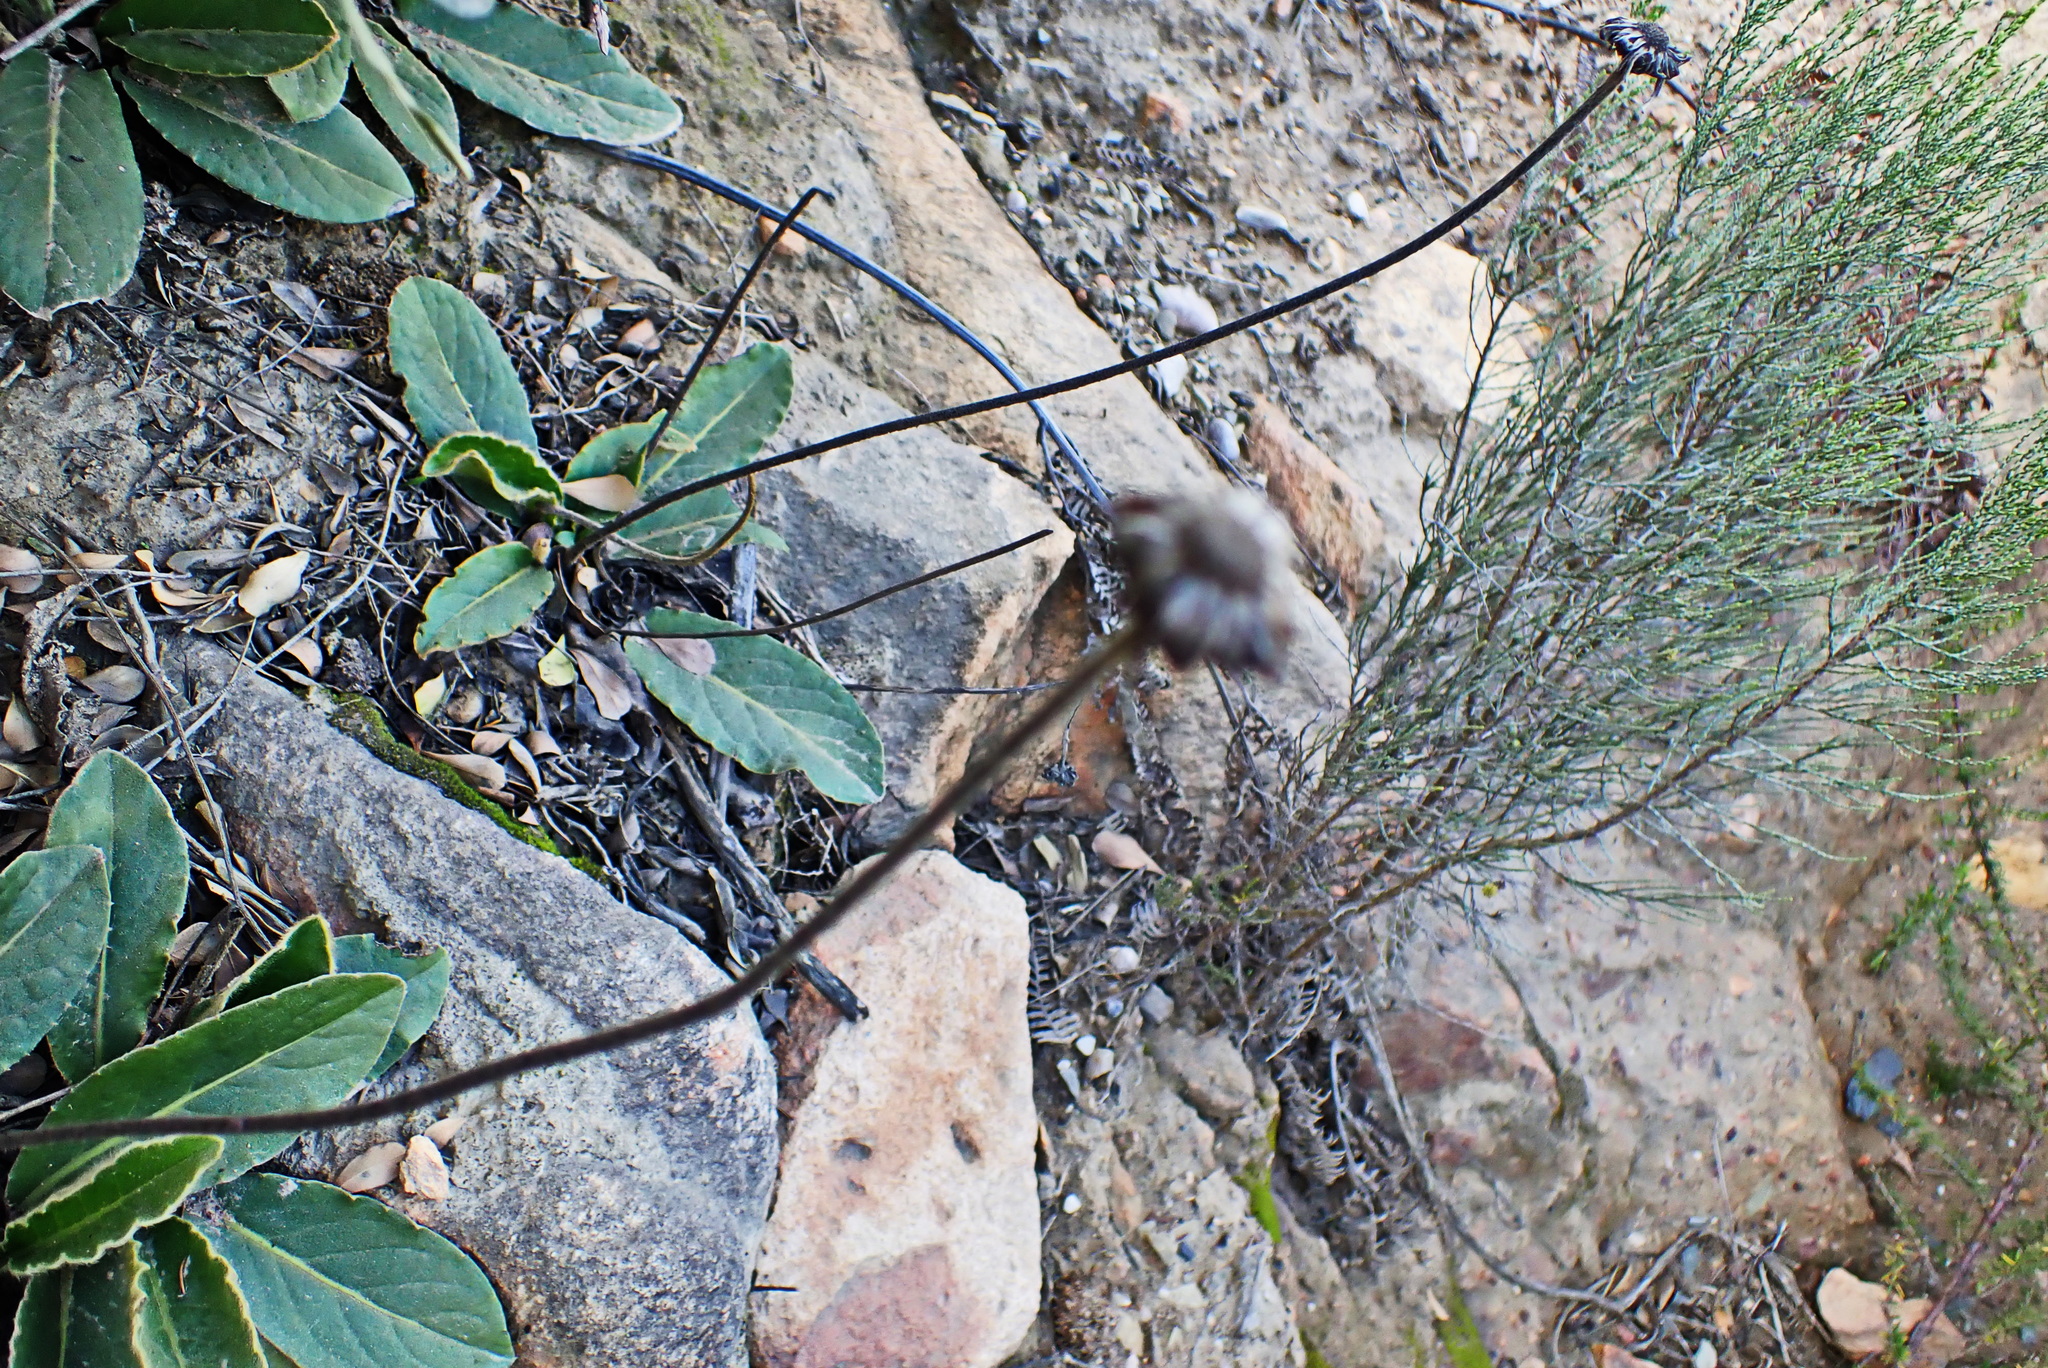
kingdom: Plantae
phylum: Tracheophyta
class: Magnoliopsida
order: Asterales
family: Asteraceae
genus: Piloselloides
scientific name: Piloselloides hirsuta
